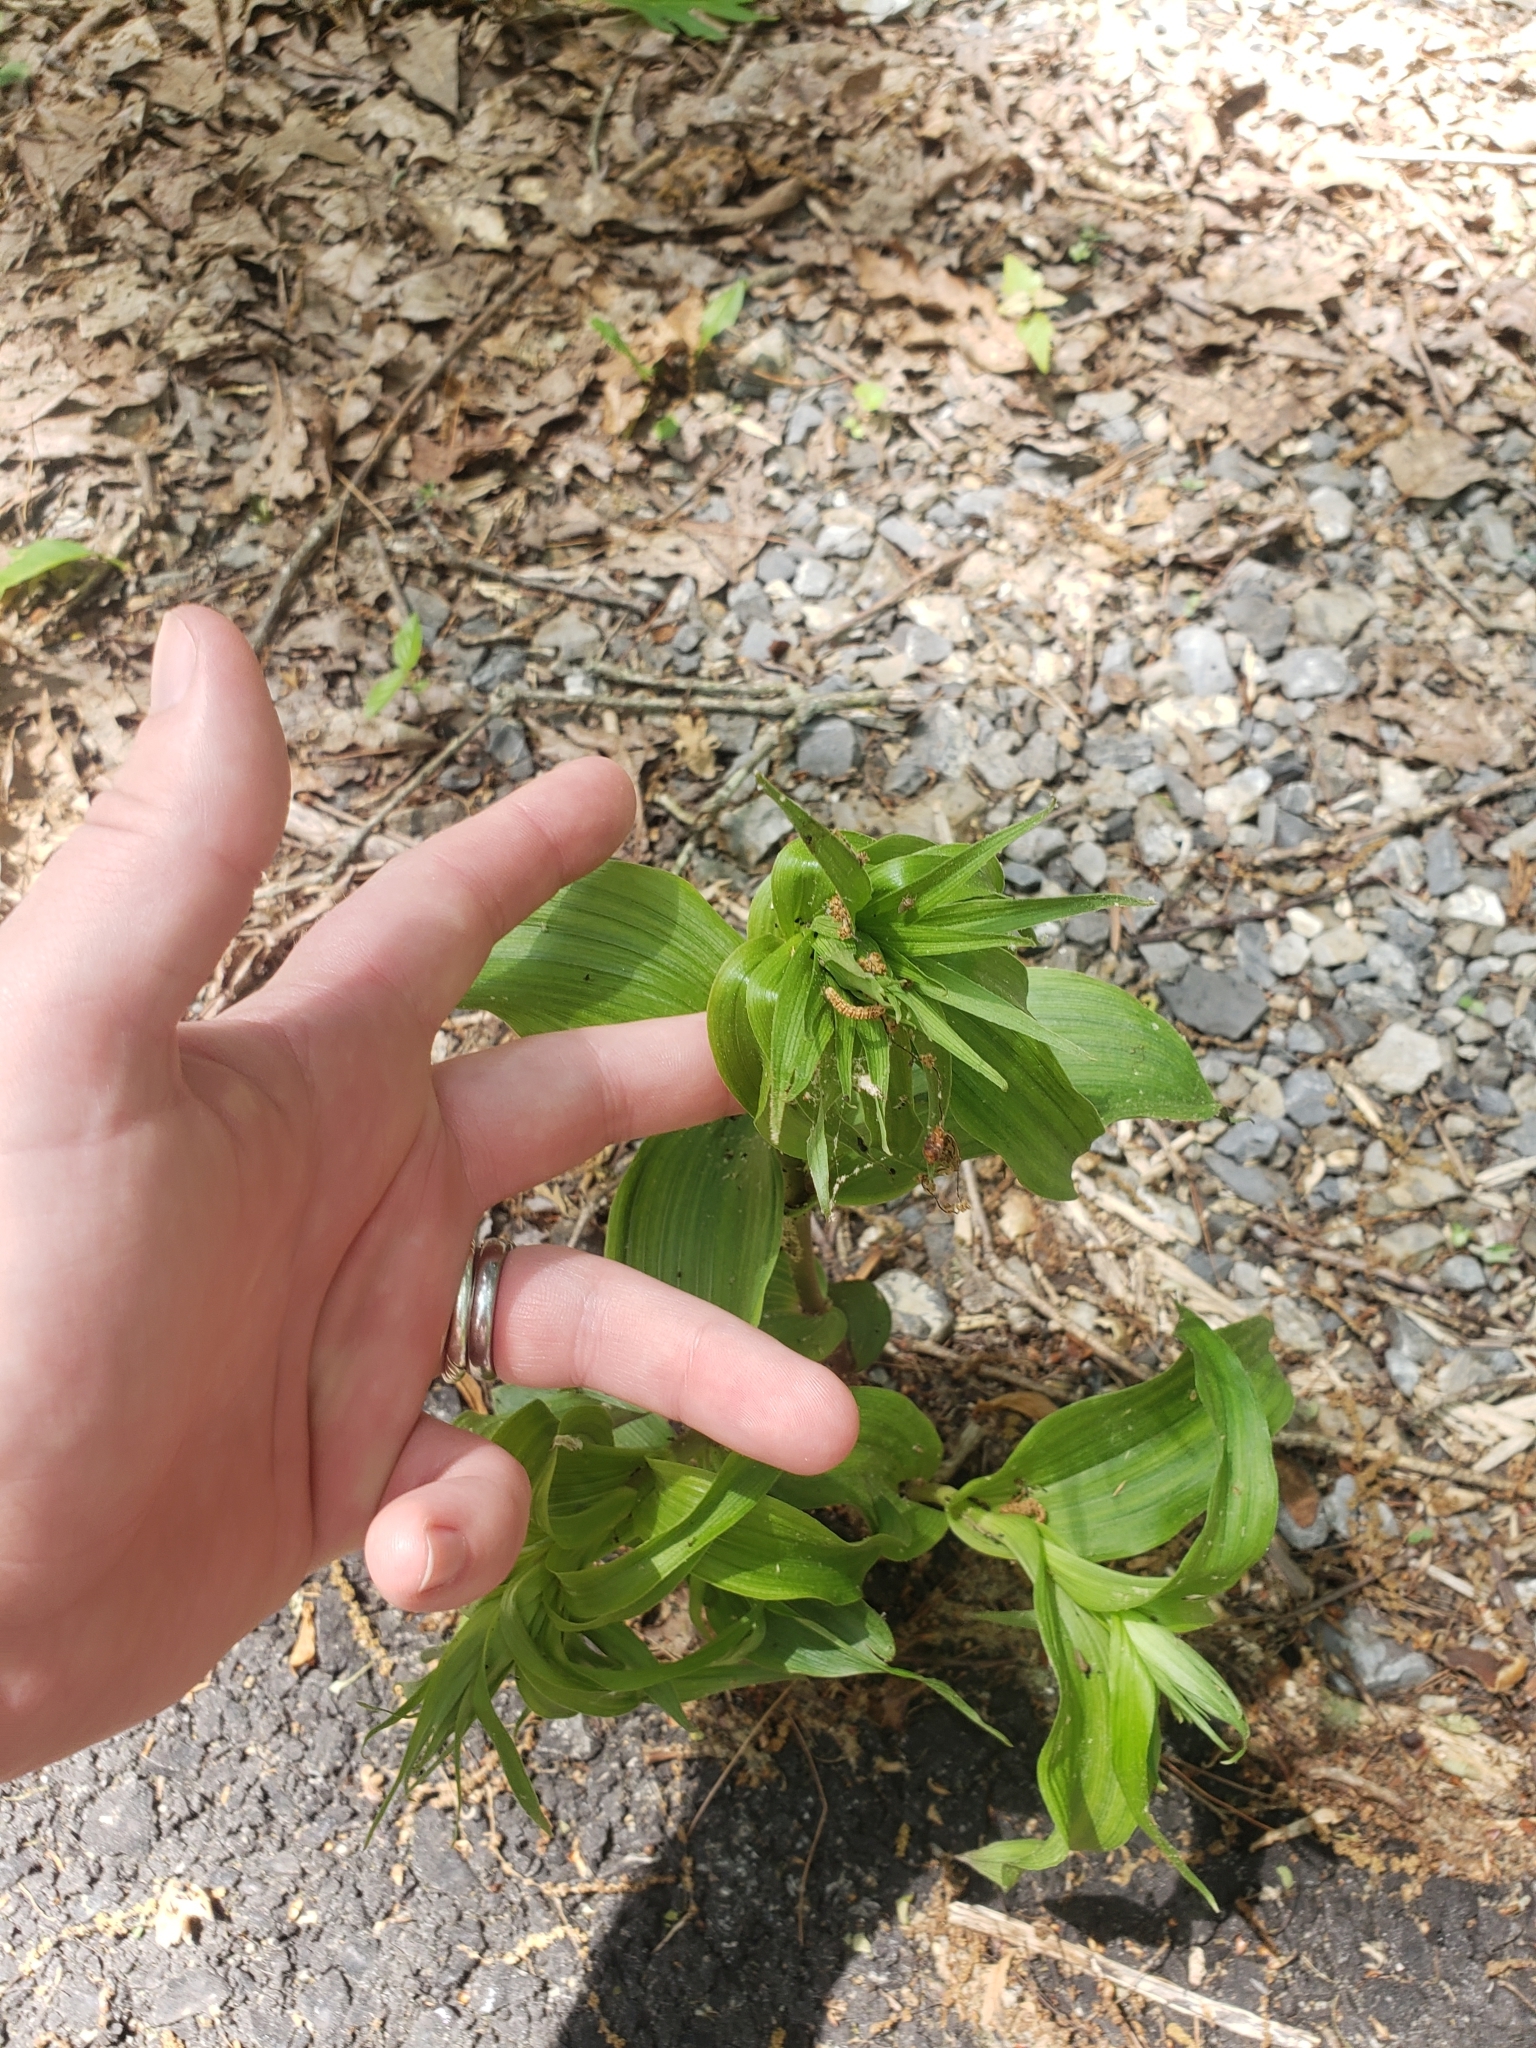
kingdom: Plantae
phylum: Tracheophyta
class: Liliopsida
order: Asparagales
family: Orchidaceae
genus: Epipactis
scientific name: Epipactis helleborine
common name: Broad-leaved helleborine
